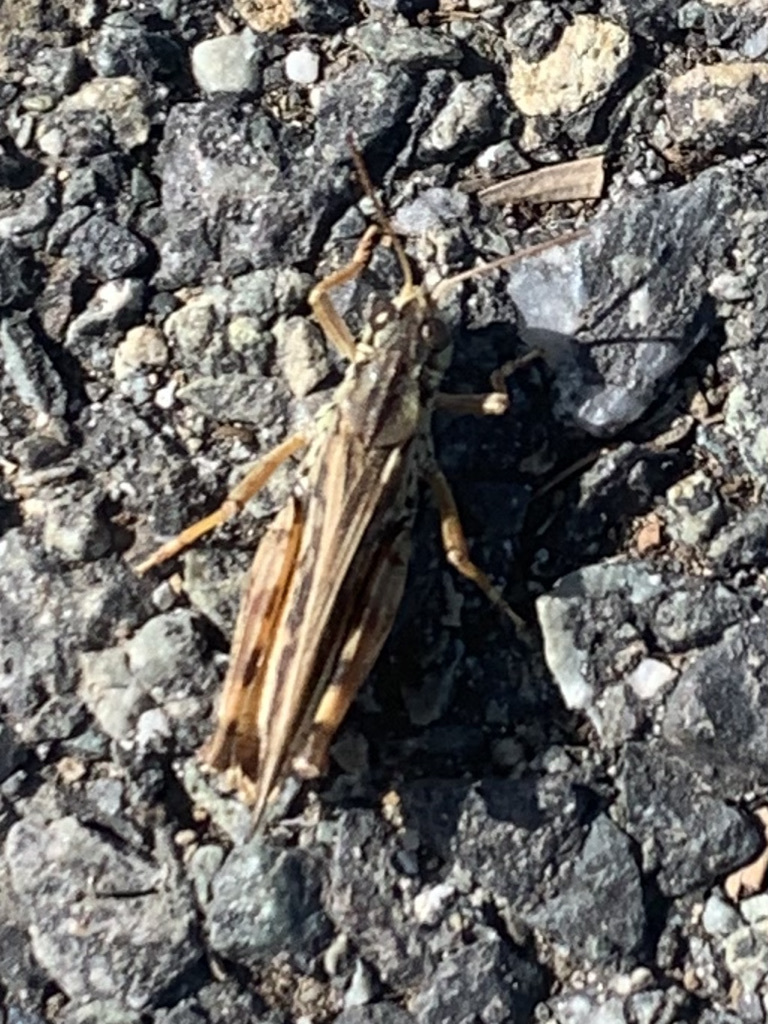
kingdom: Animalia
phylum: Arthropoda
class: Insecta
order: Orthoptera
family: Acrididae
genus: Camnula
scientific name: Camnula pellucida
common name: Clear-winged grasshopper
